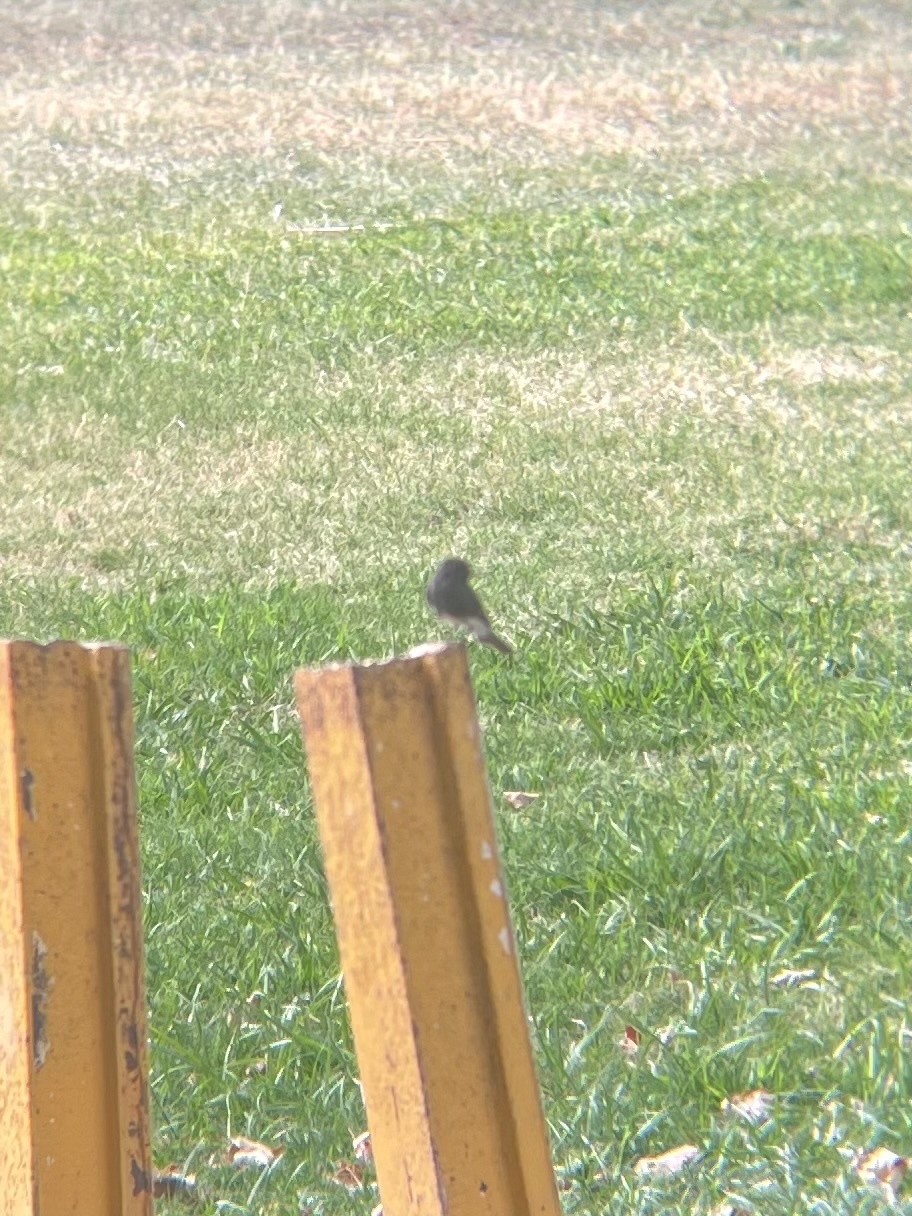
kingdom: Animalia
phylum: Chordata
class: Aves
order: Passeriformes
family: Tyrannidae
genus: Sayornis
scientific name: Sayornis nigricans
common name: Black phoebe
